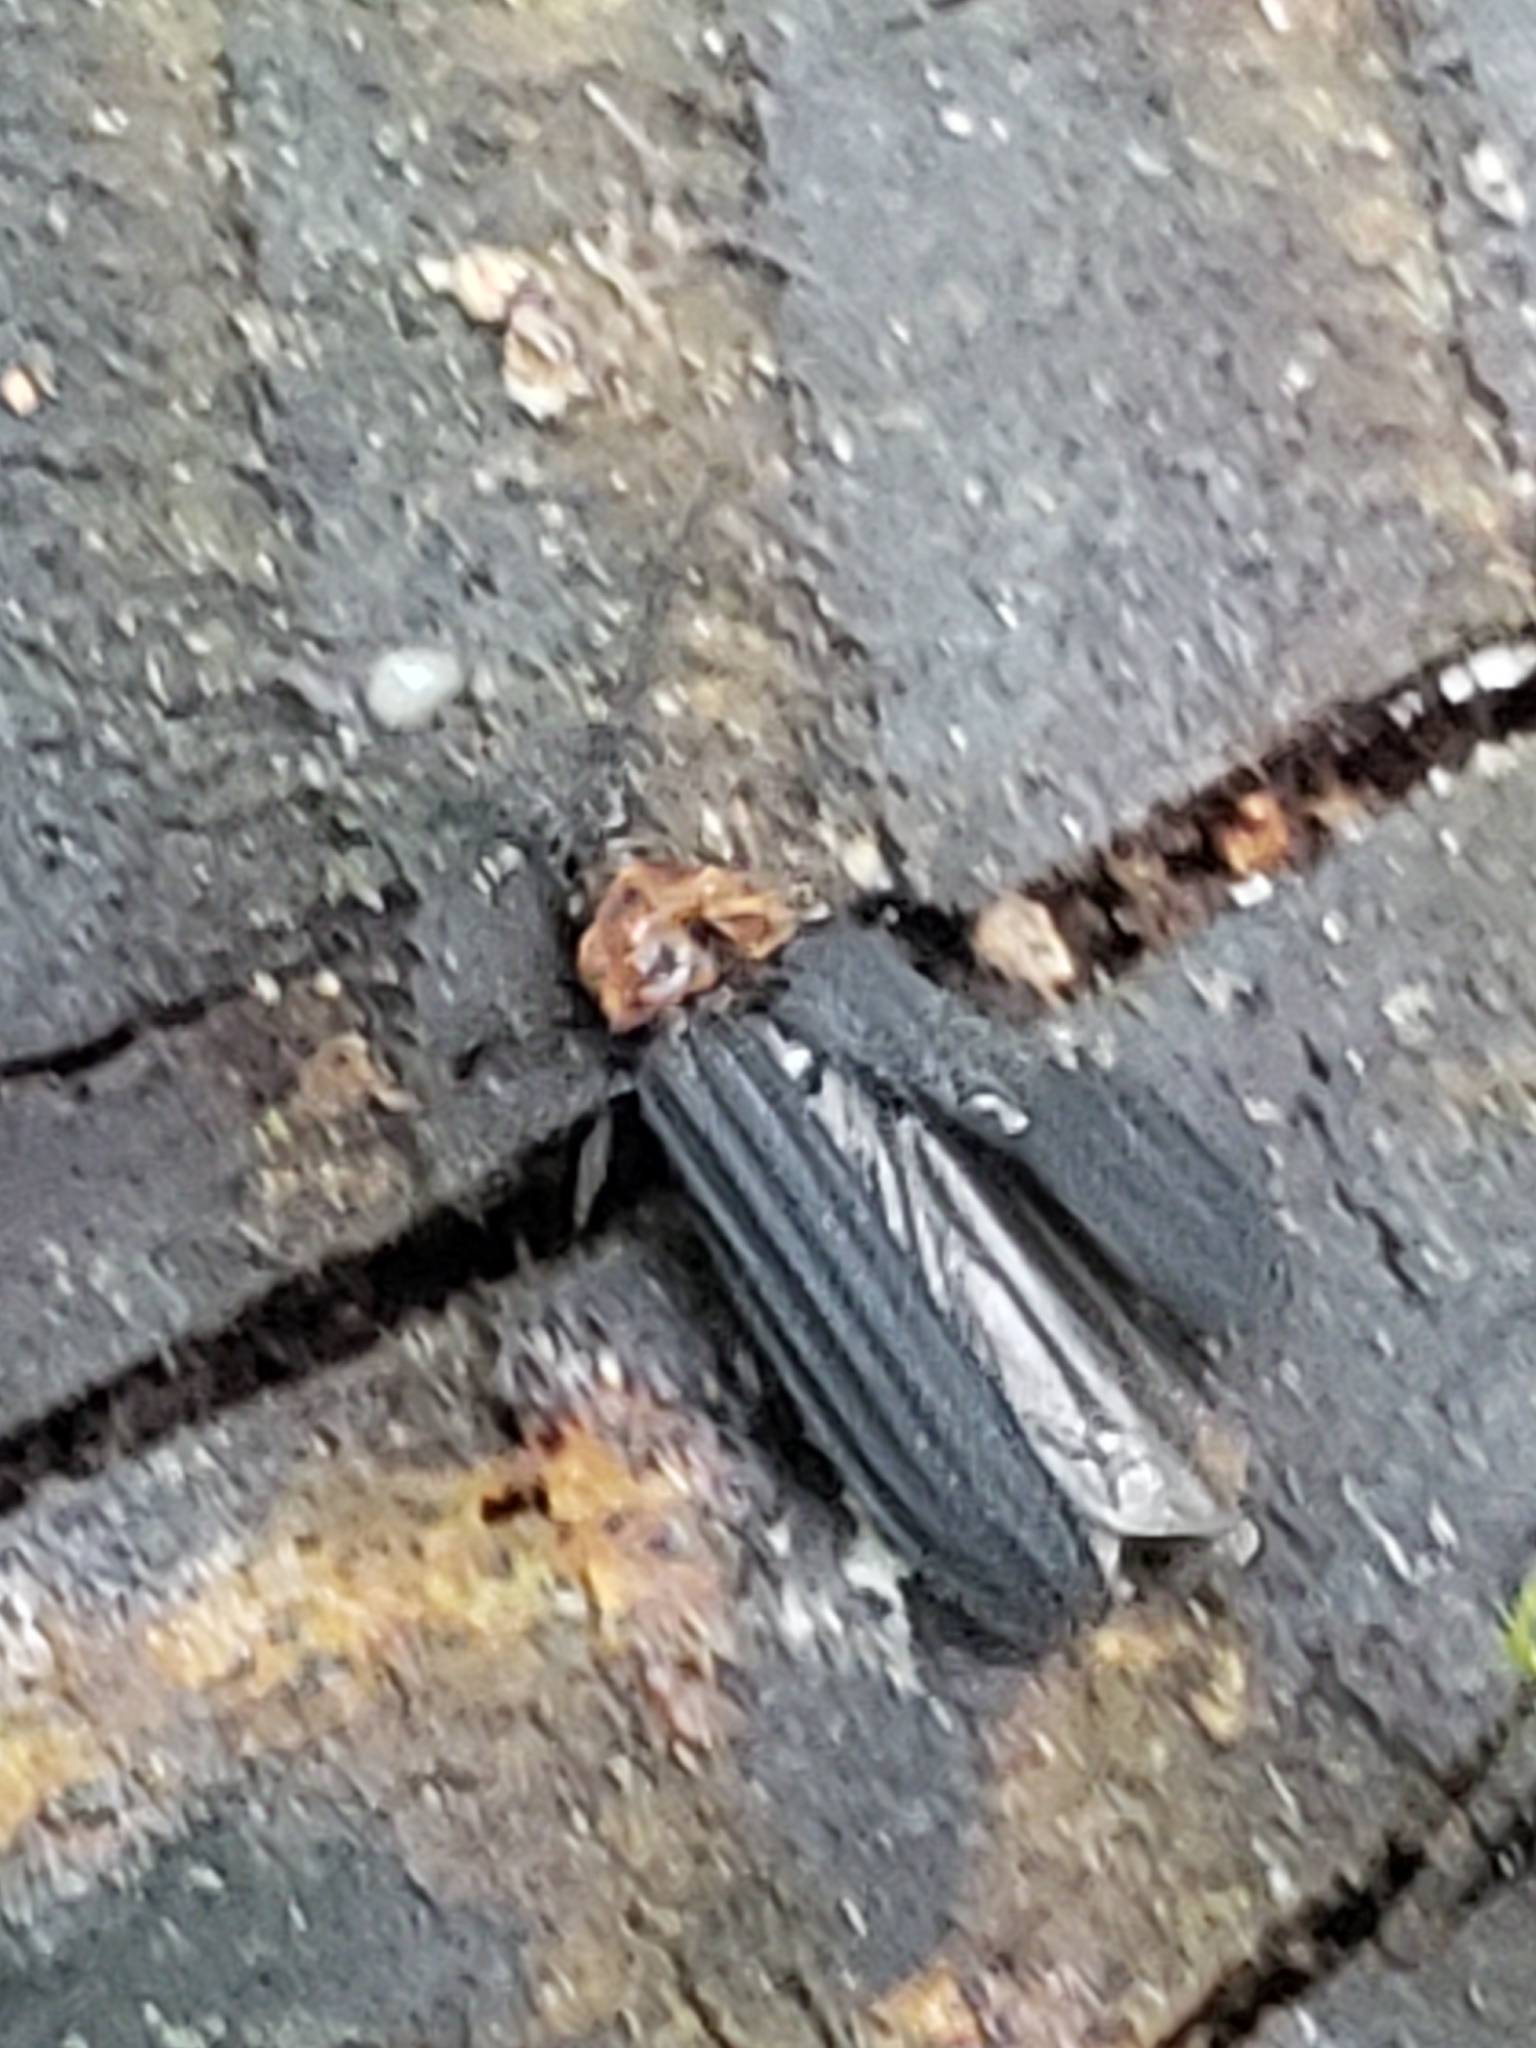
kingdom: Animalia
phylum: Arthropoda
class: Insecta
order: Coleoptera
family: Lycidae
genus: Eropterus
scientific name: Eropterus trilineatus
